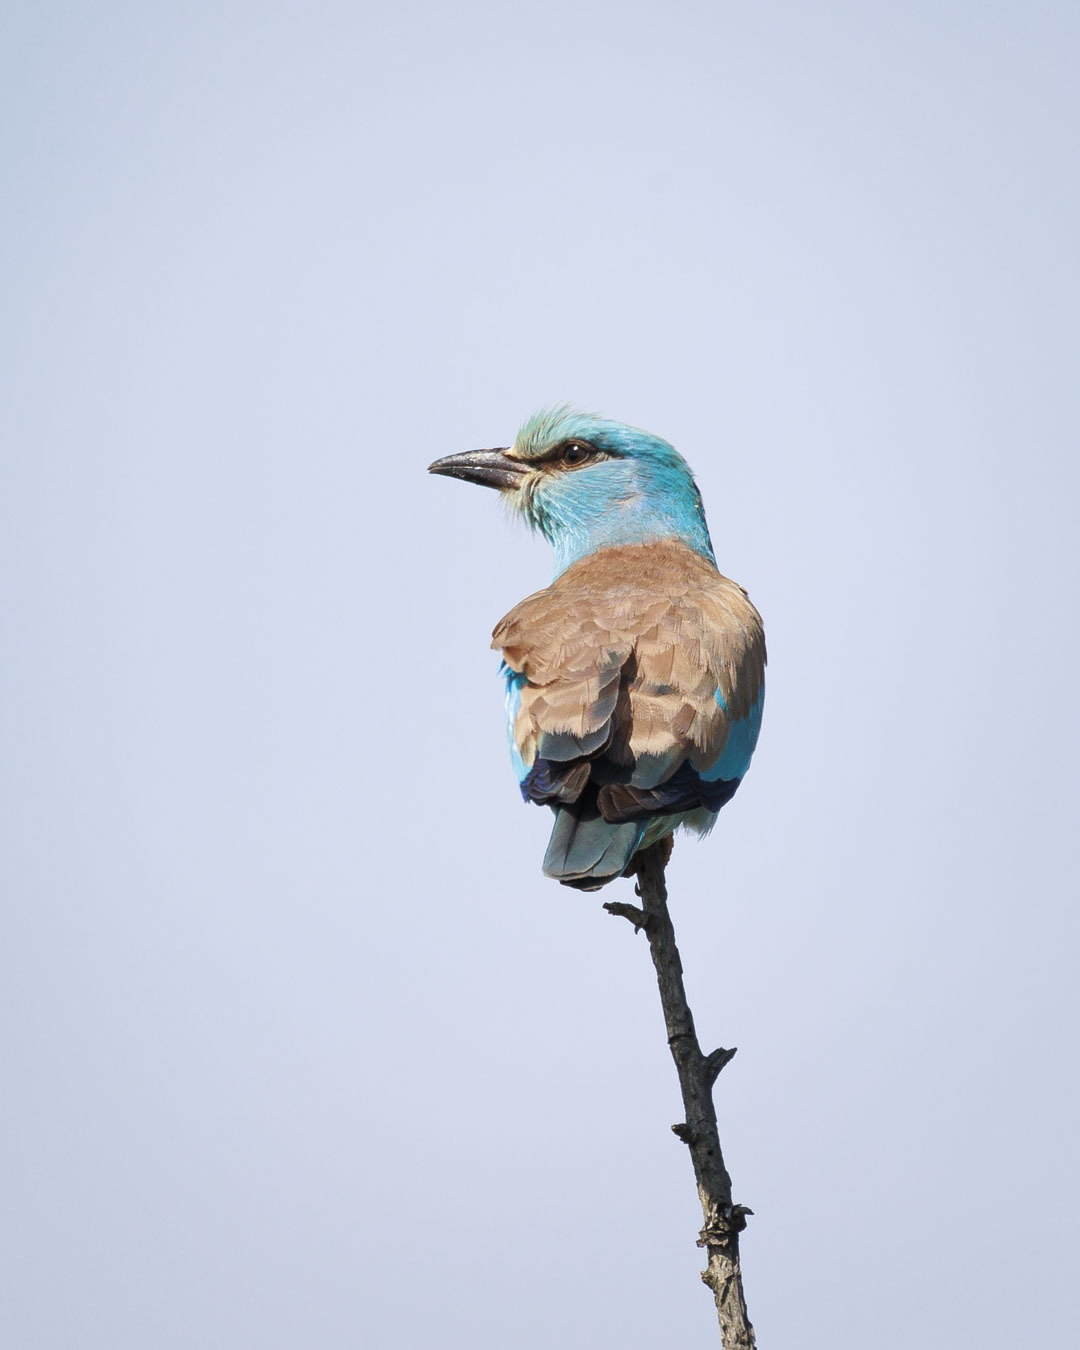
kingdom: Animalia
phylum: Chordata
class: Aves
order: Coraciiformes
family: Coraciidae
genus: Coracias
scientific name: Coracias garrulus
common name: European roller
